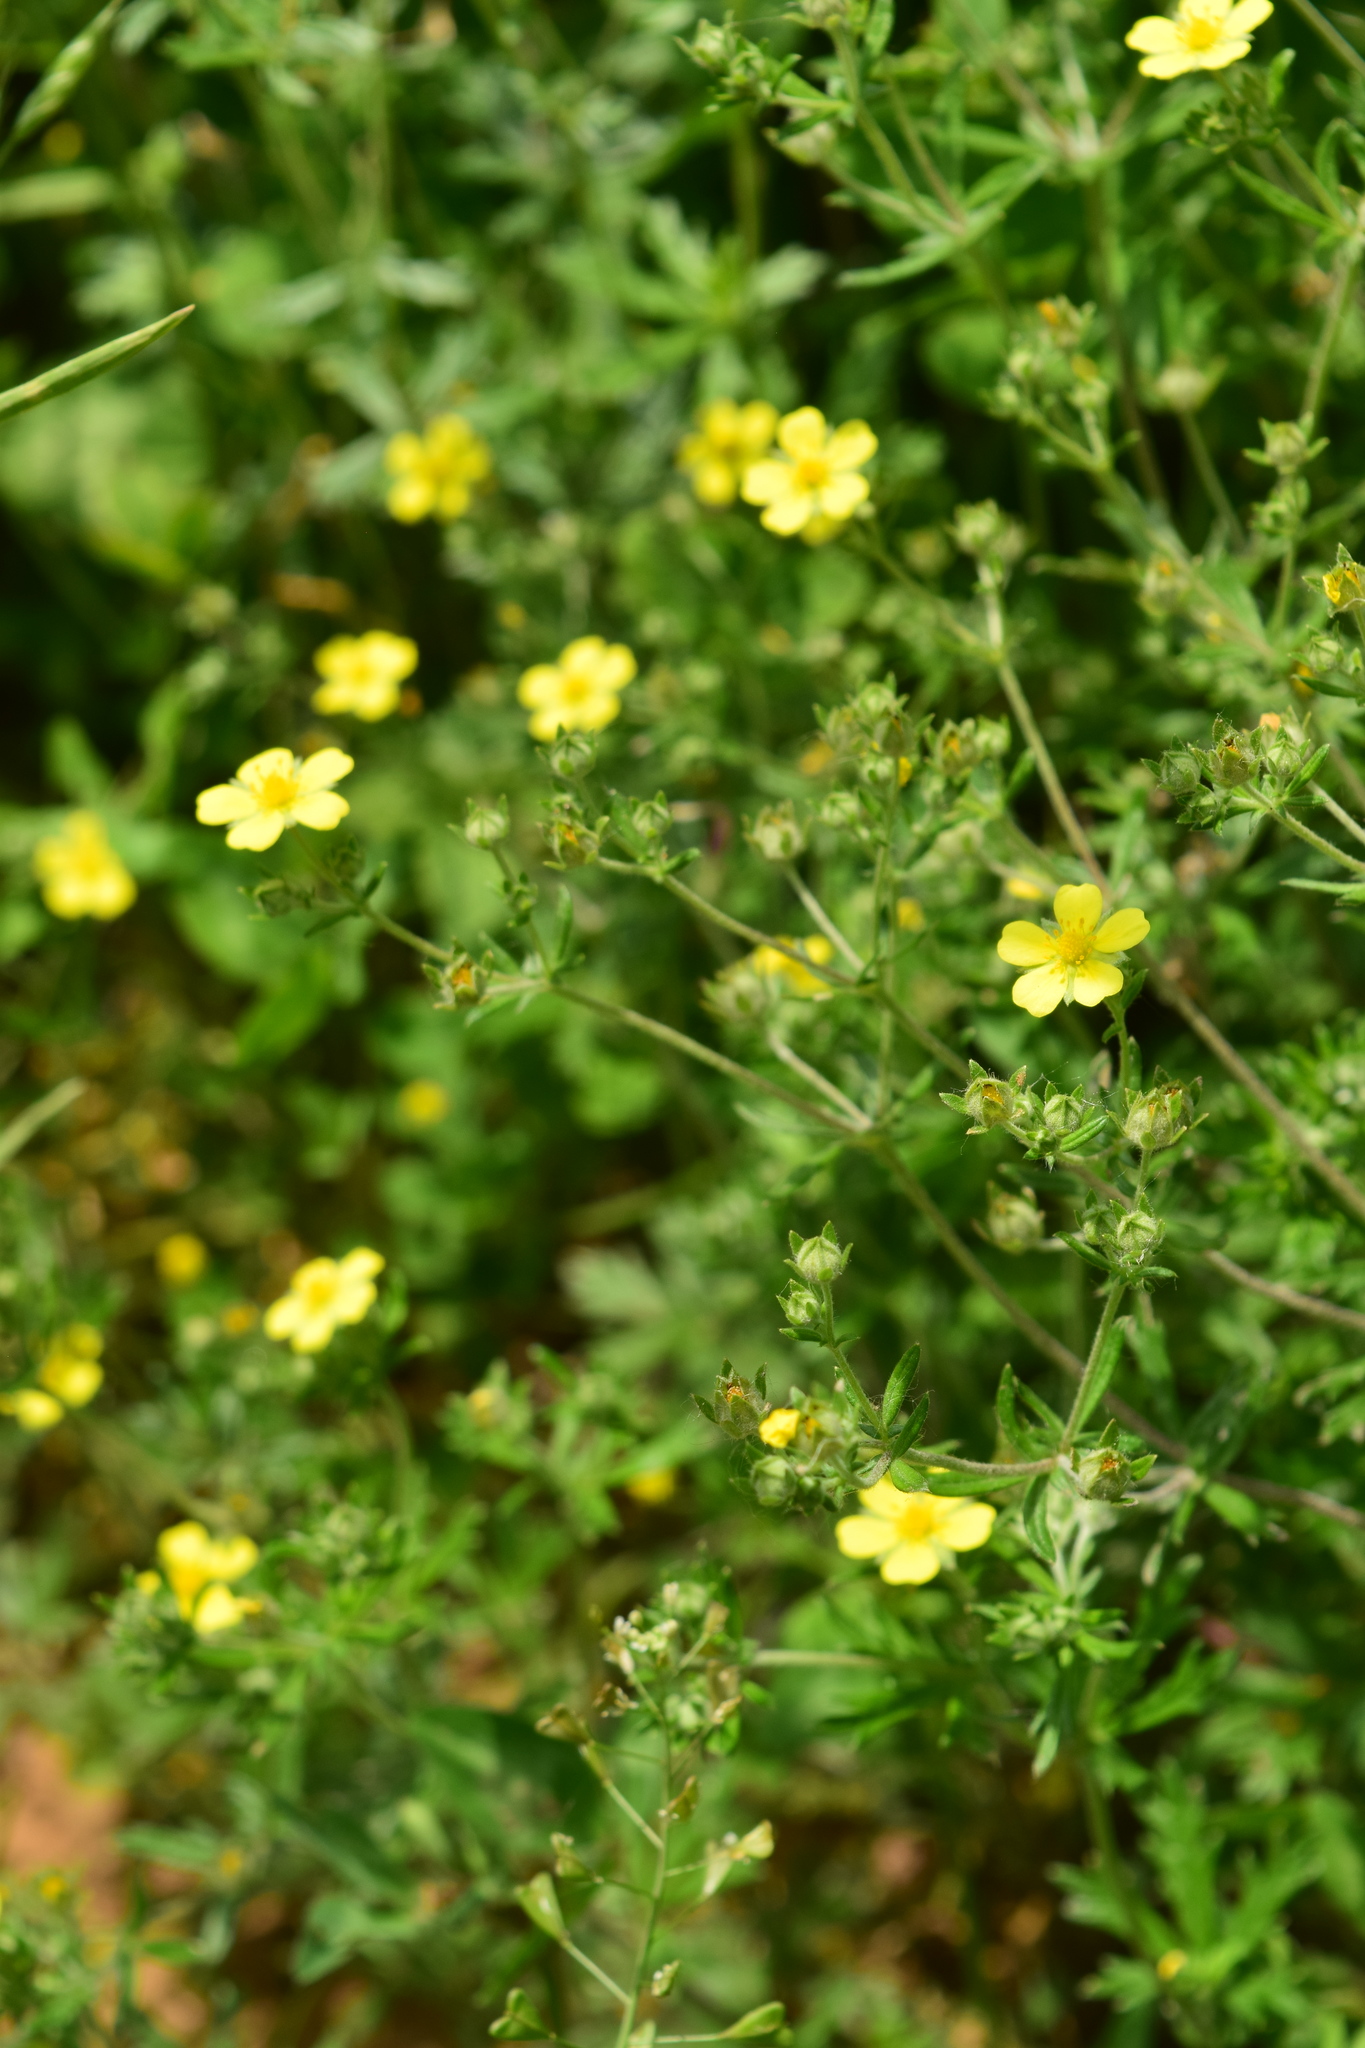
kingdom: Plantae
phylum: Tracheophyta
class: Magnoliopsida
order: Rosales
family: Rosaceae
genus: Potentilla
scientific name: Potentilla argentea
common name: Hoary cinquefoil
